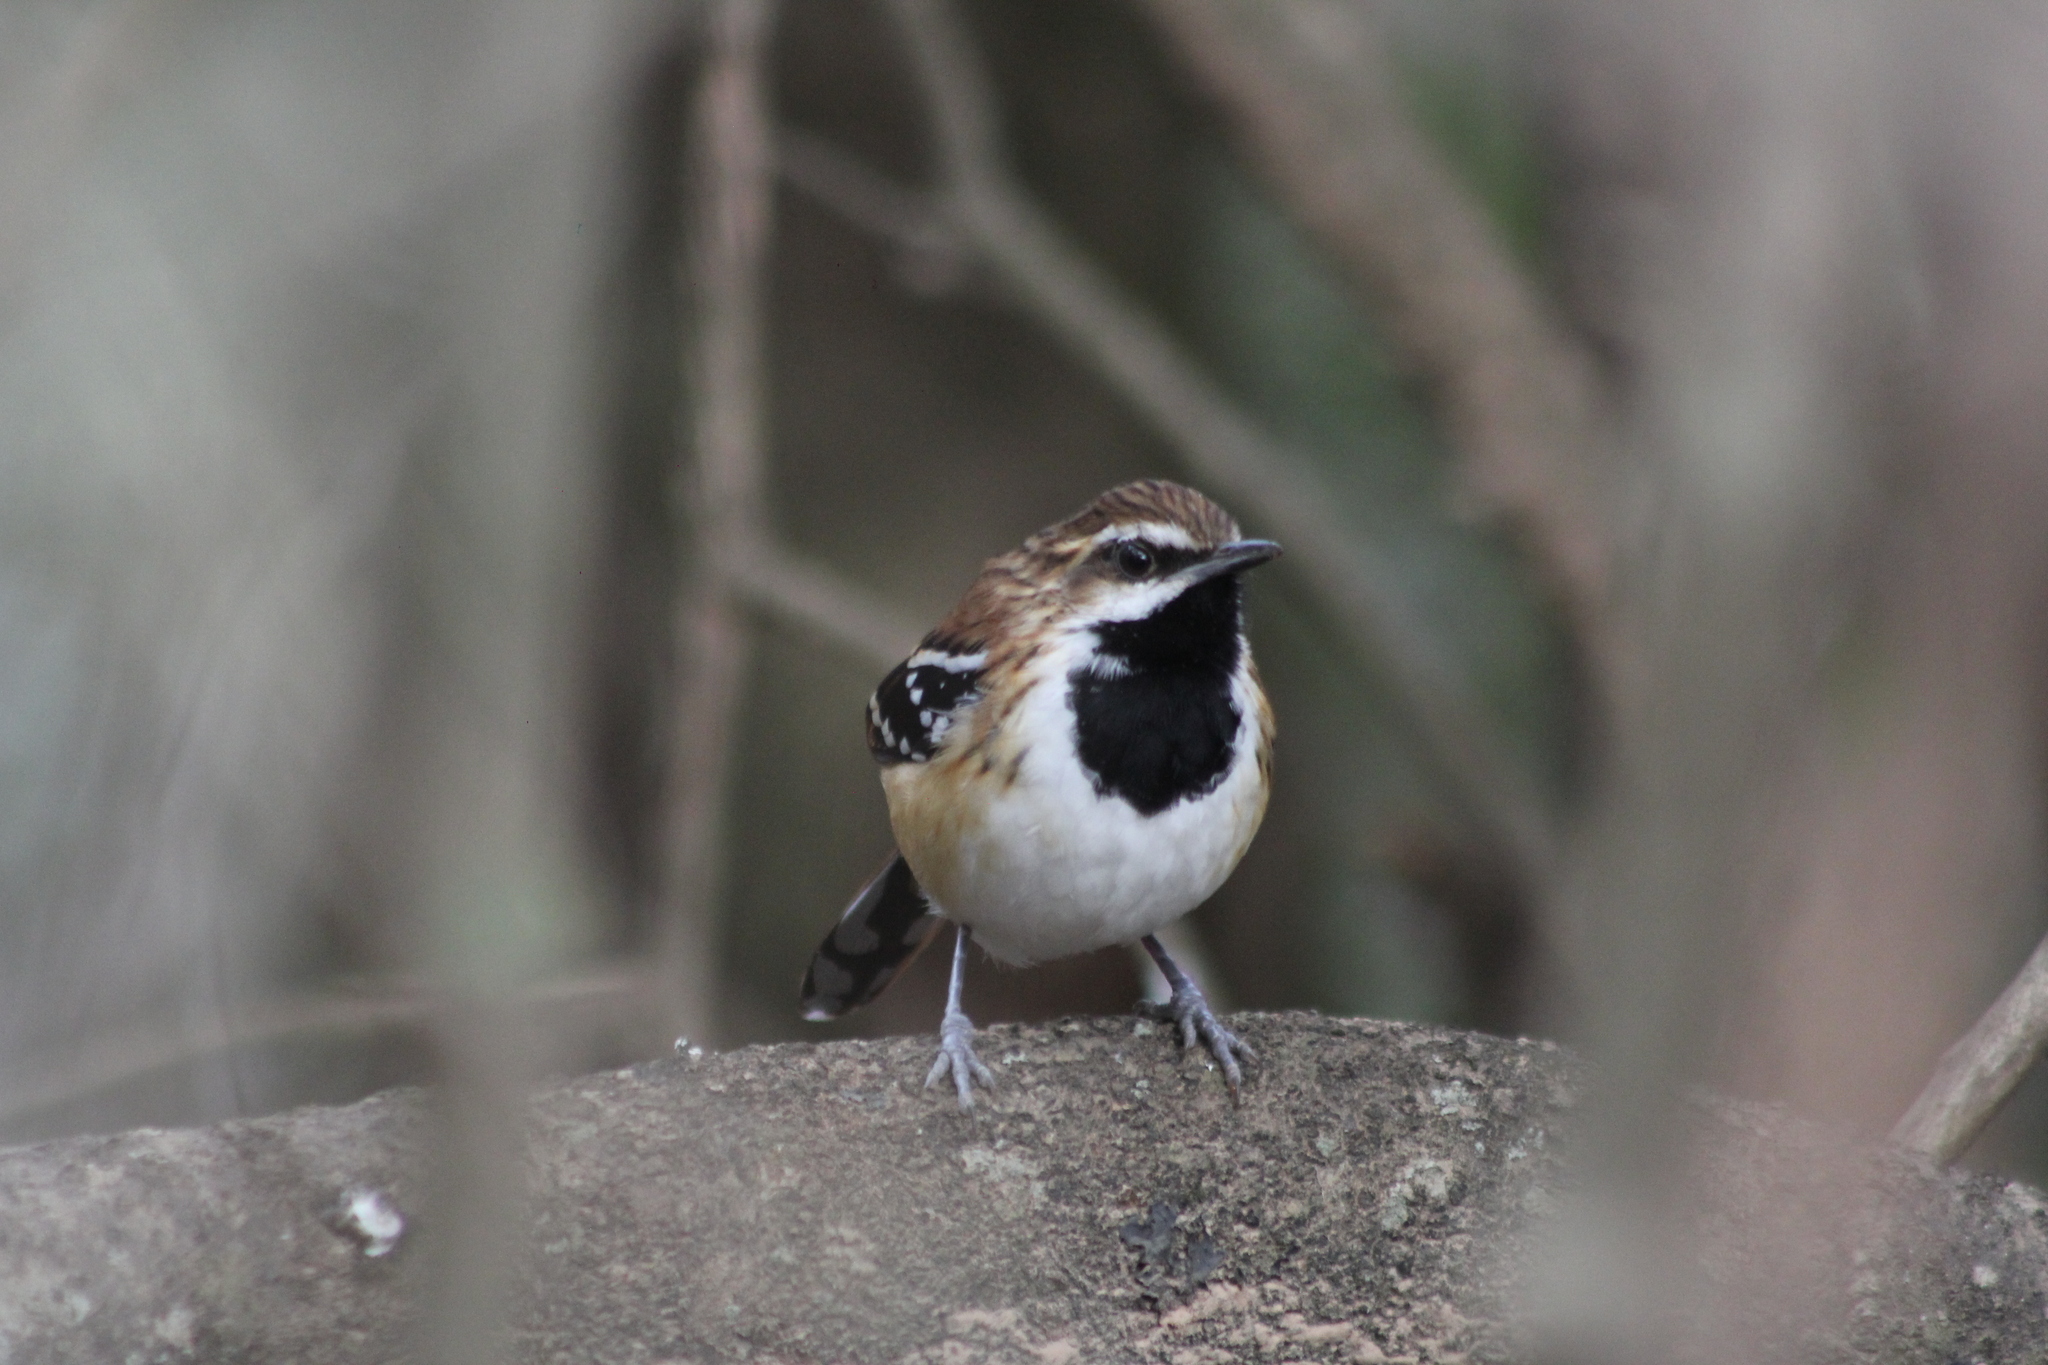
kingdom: Animalia
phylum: Chordata
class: Aves
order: Passeriformes
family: Thamnophilidae
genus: Myrmorchilus
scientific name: Myrmorchilus strigilatus
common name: Stripe-backed antbird
